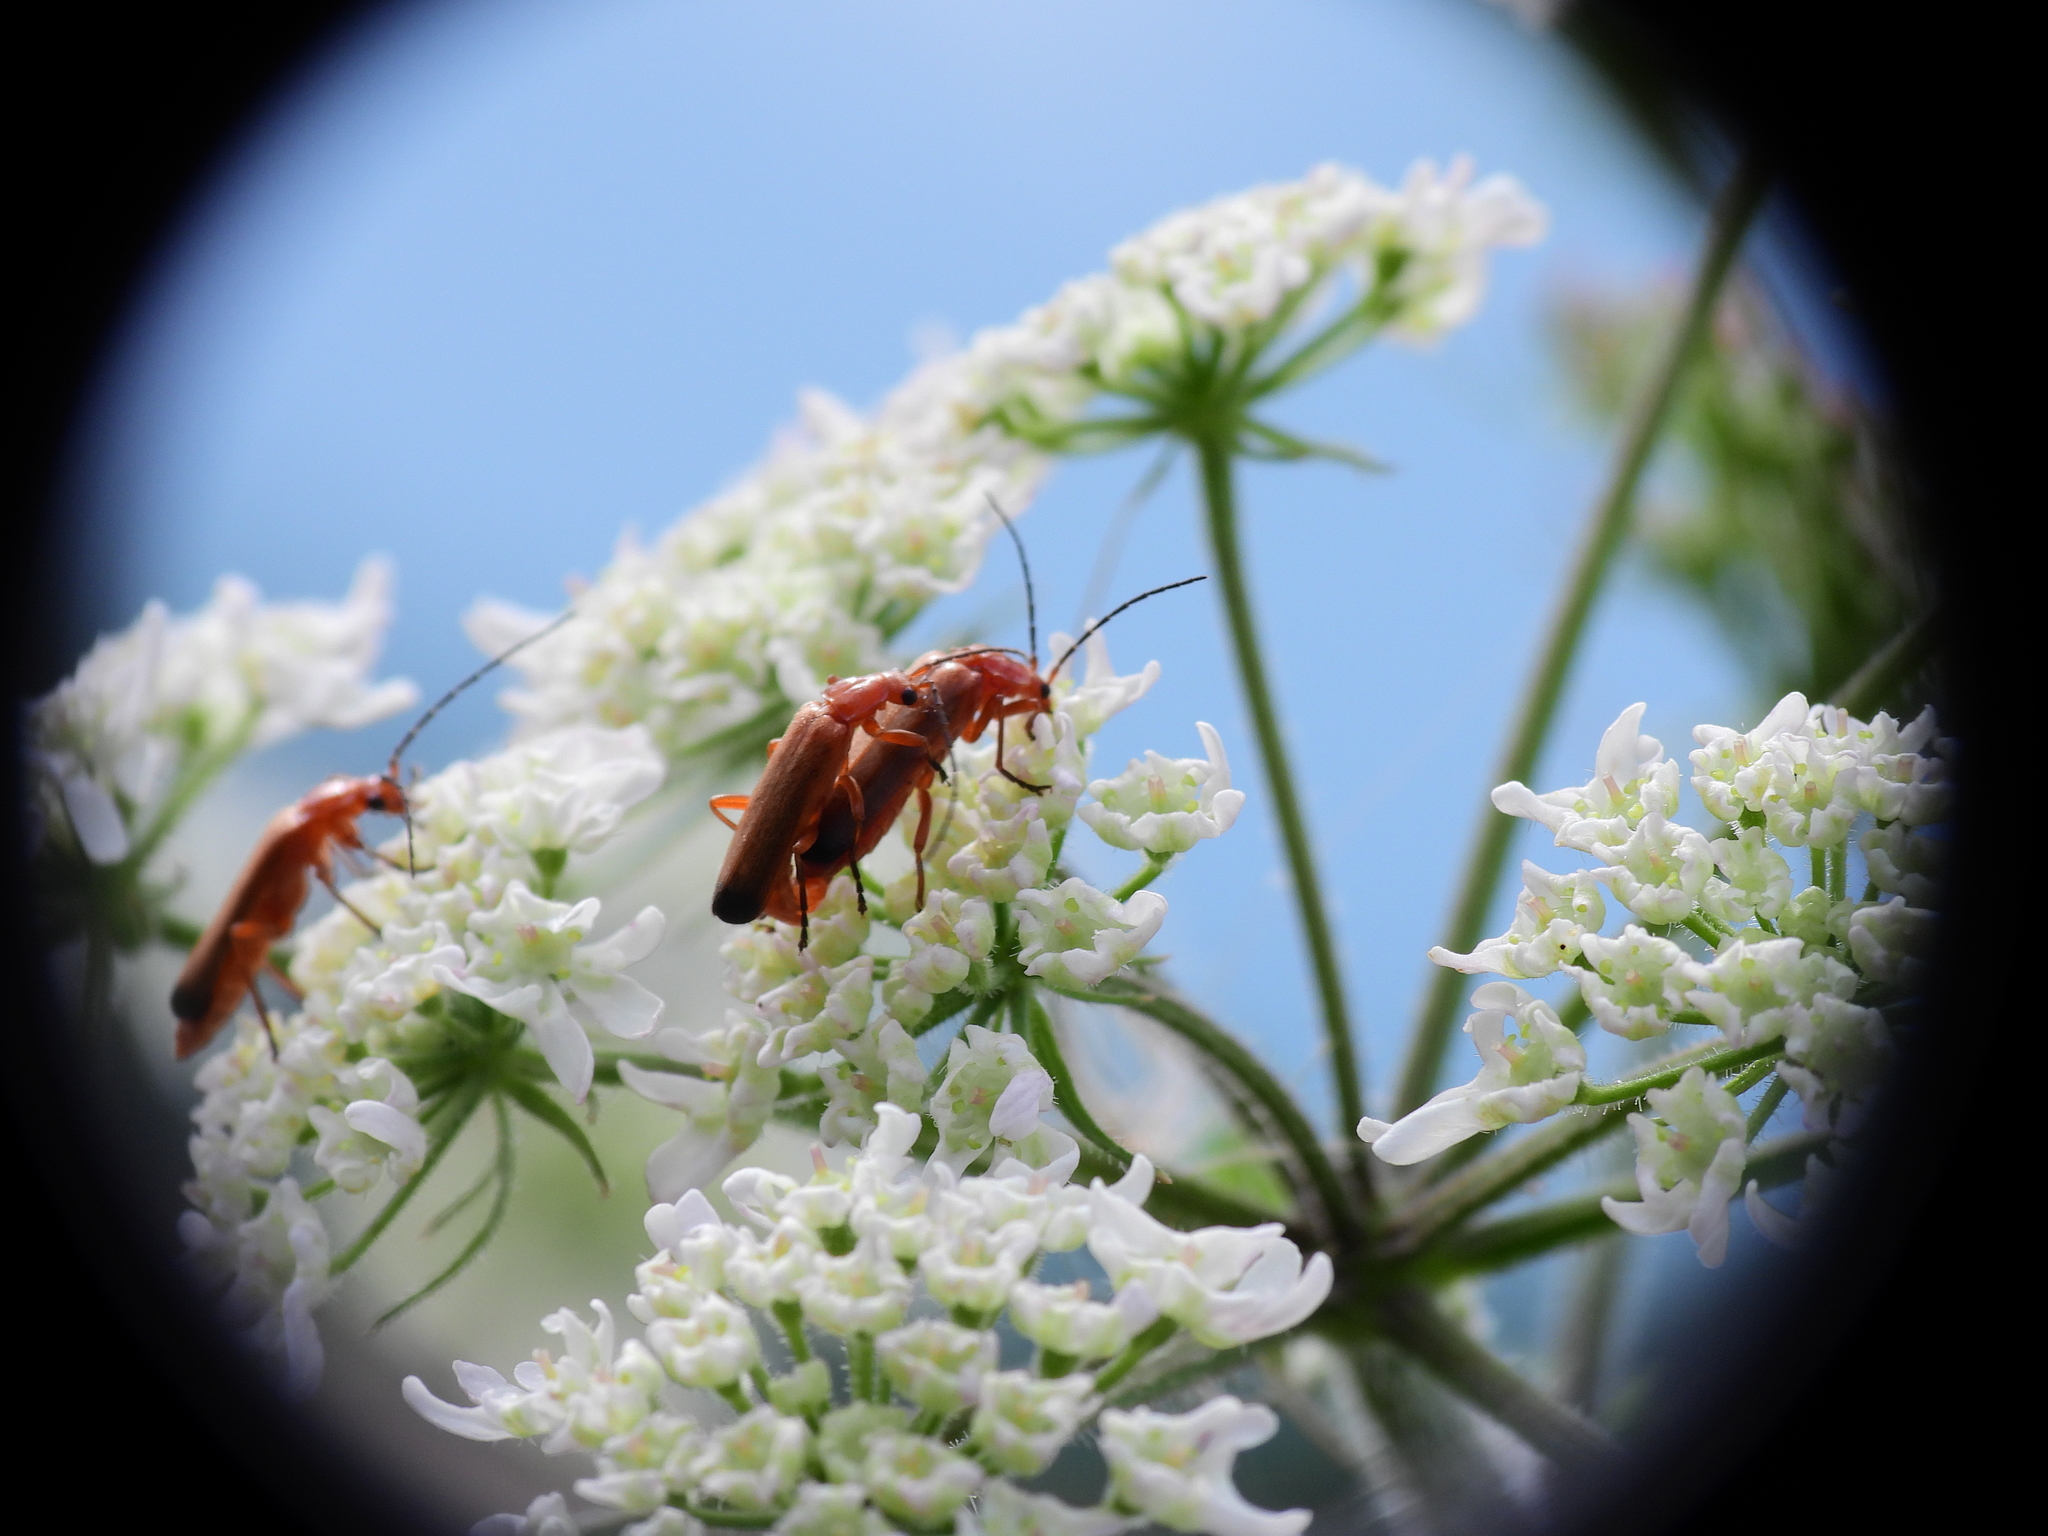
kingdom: Animalia
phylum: Arthropoda
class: Insecta
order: Coleoptera
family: Cantharidae
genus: Rhagonycha
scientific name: Rhagonycha fulva
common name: Common red soldier beetle
